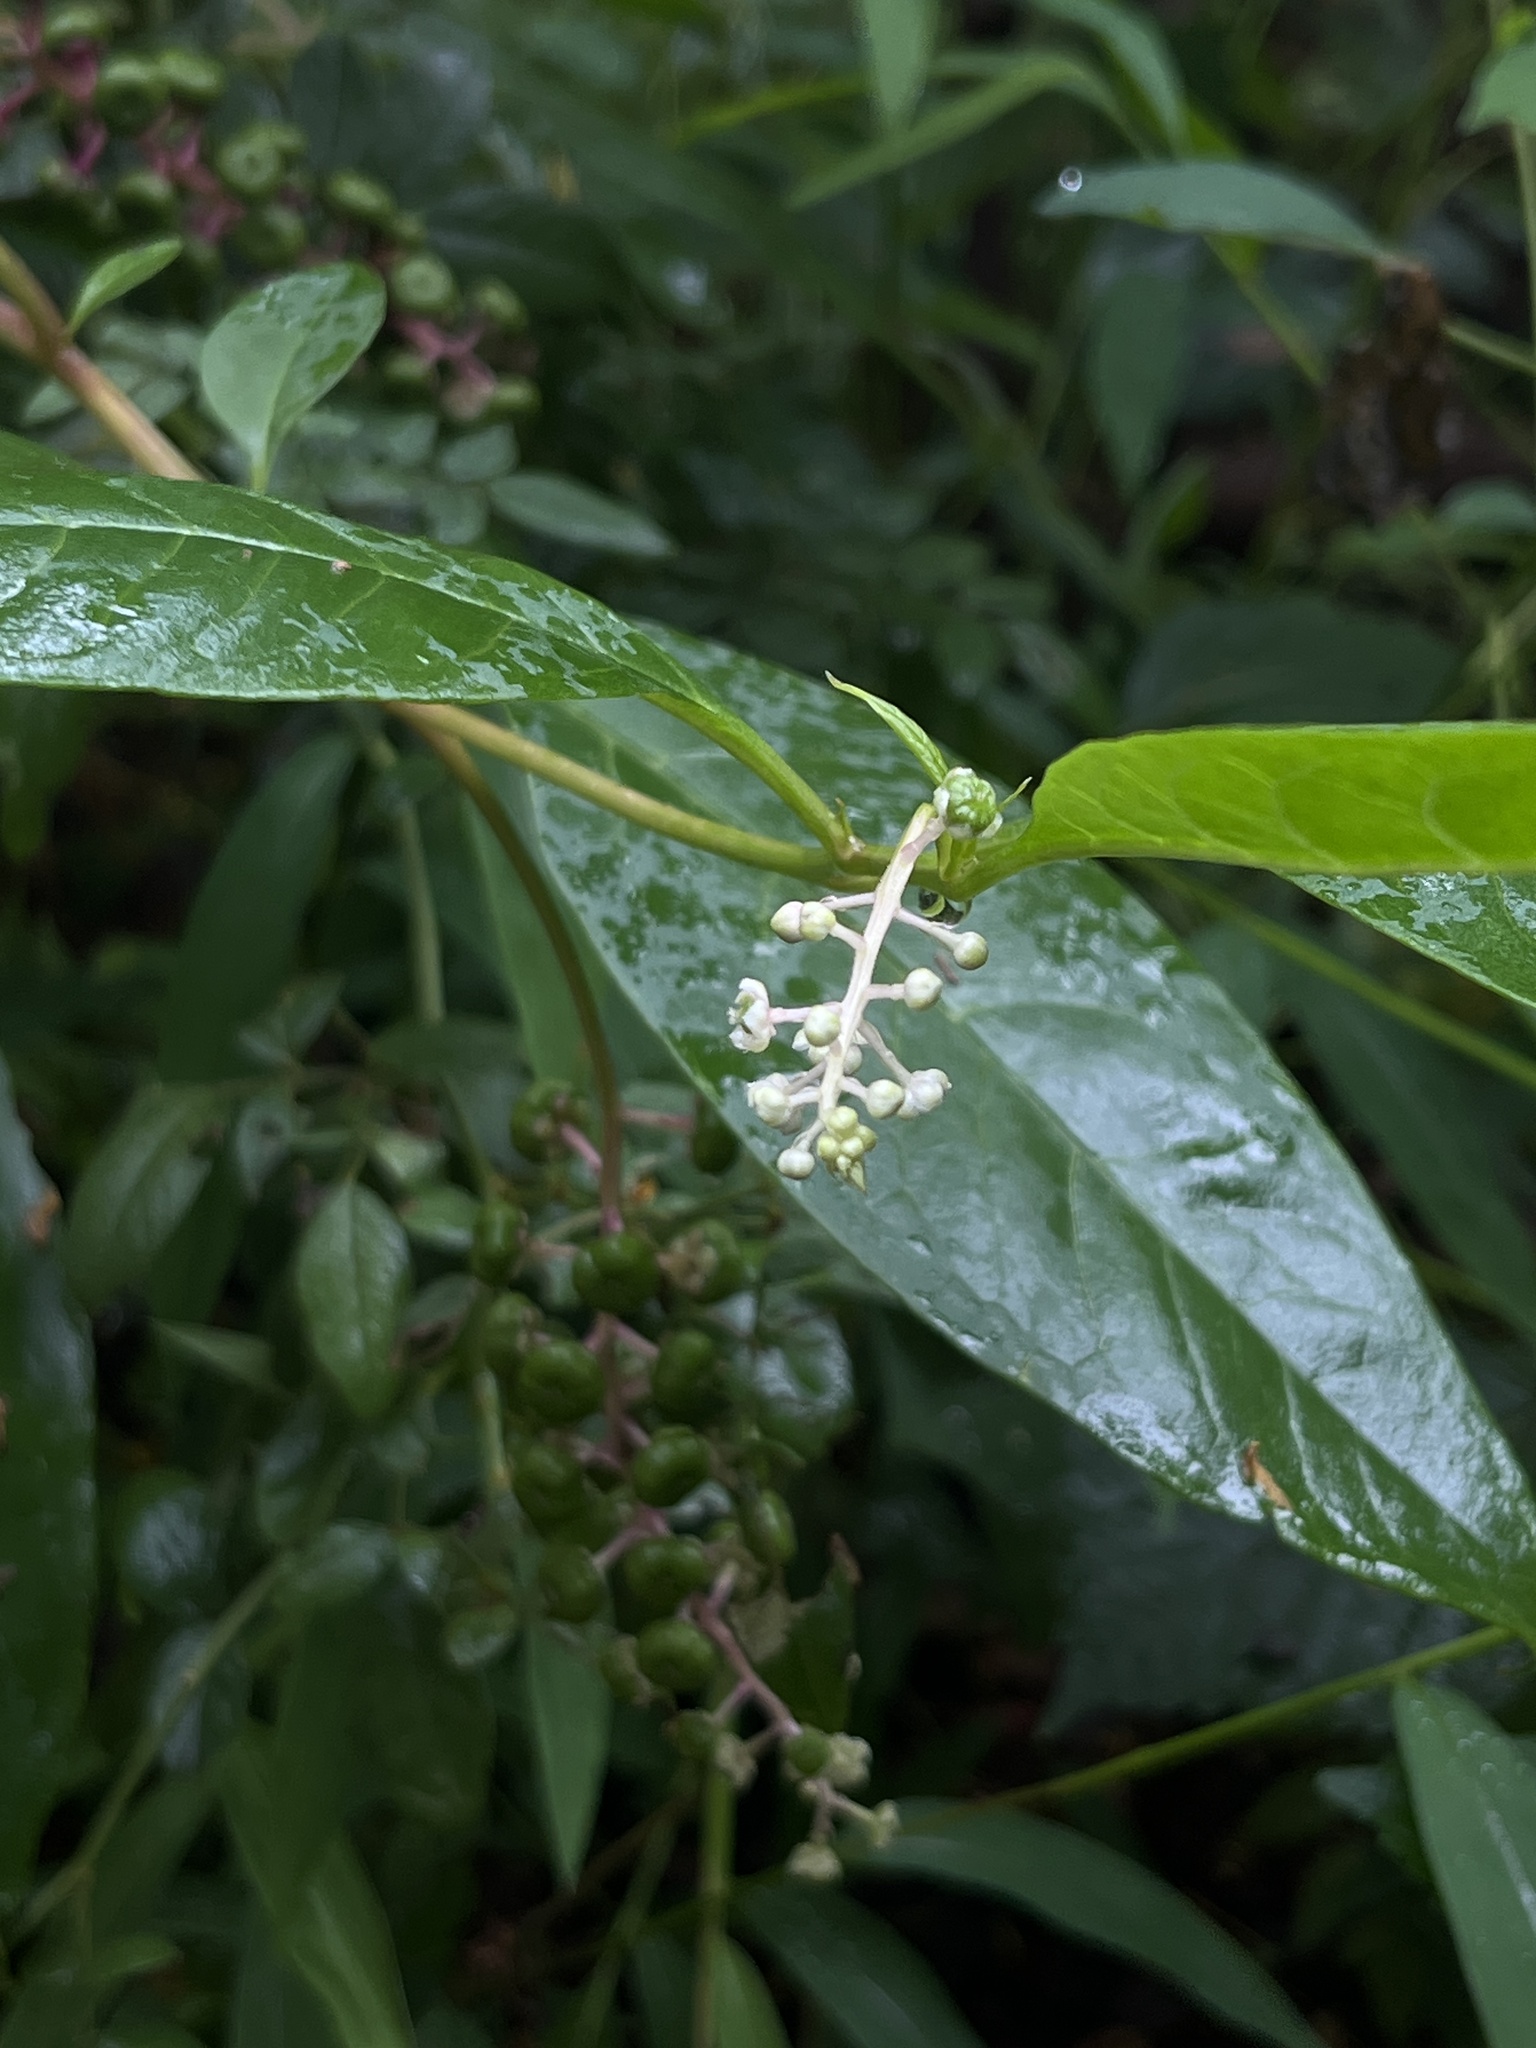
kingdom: Plantae
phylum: Tracheophyta
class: Magnoliopsida
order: Caryophyllales
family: Phytolaccaceae
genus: Phytolacca
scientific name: Phytolacca americana
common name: American pokeweed
